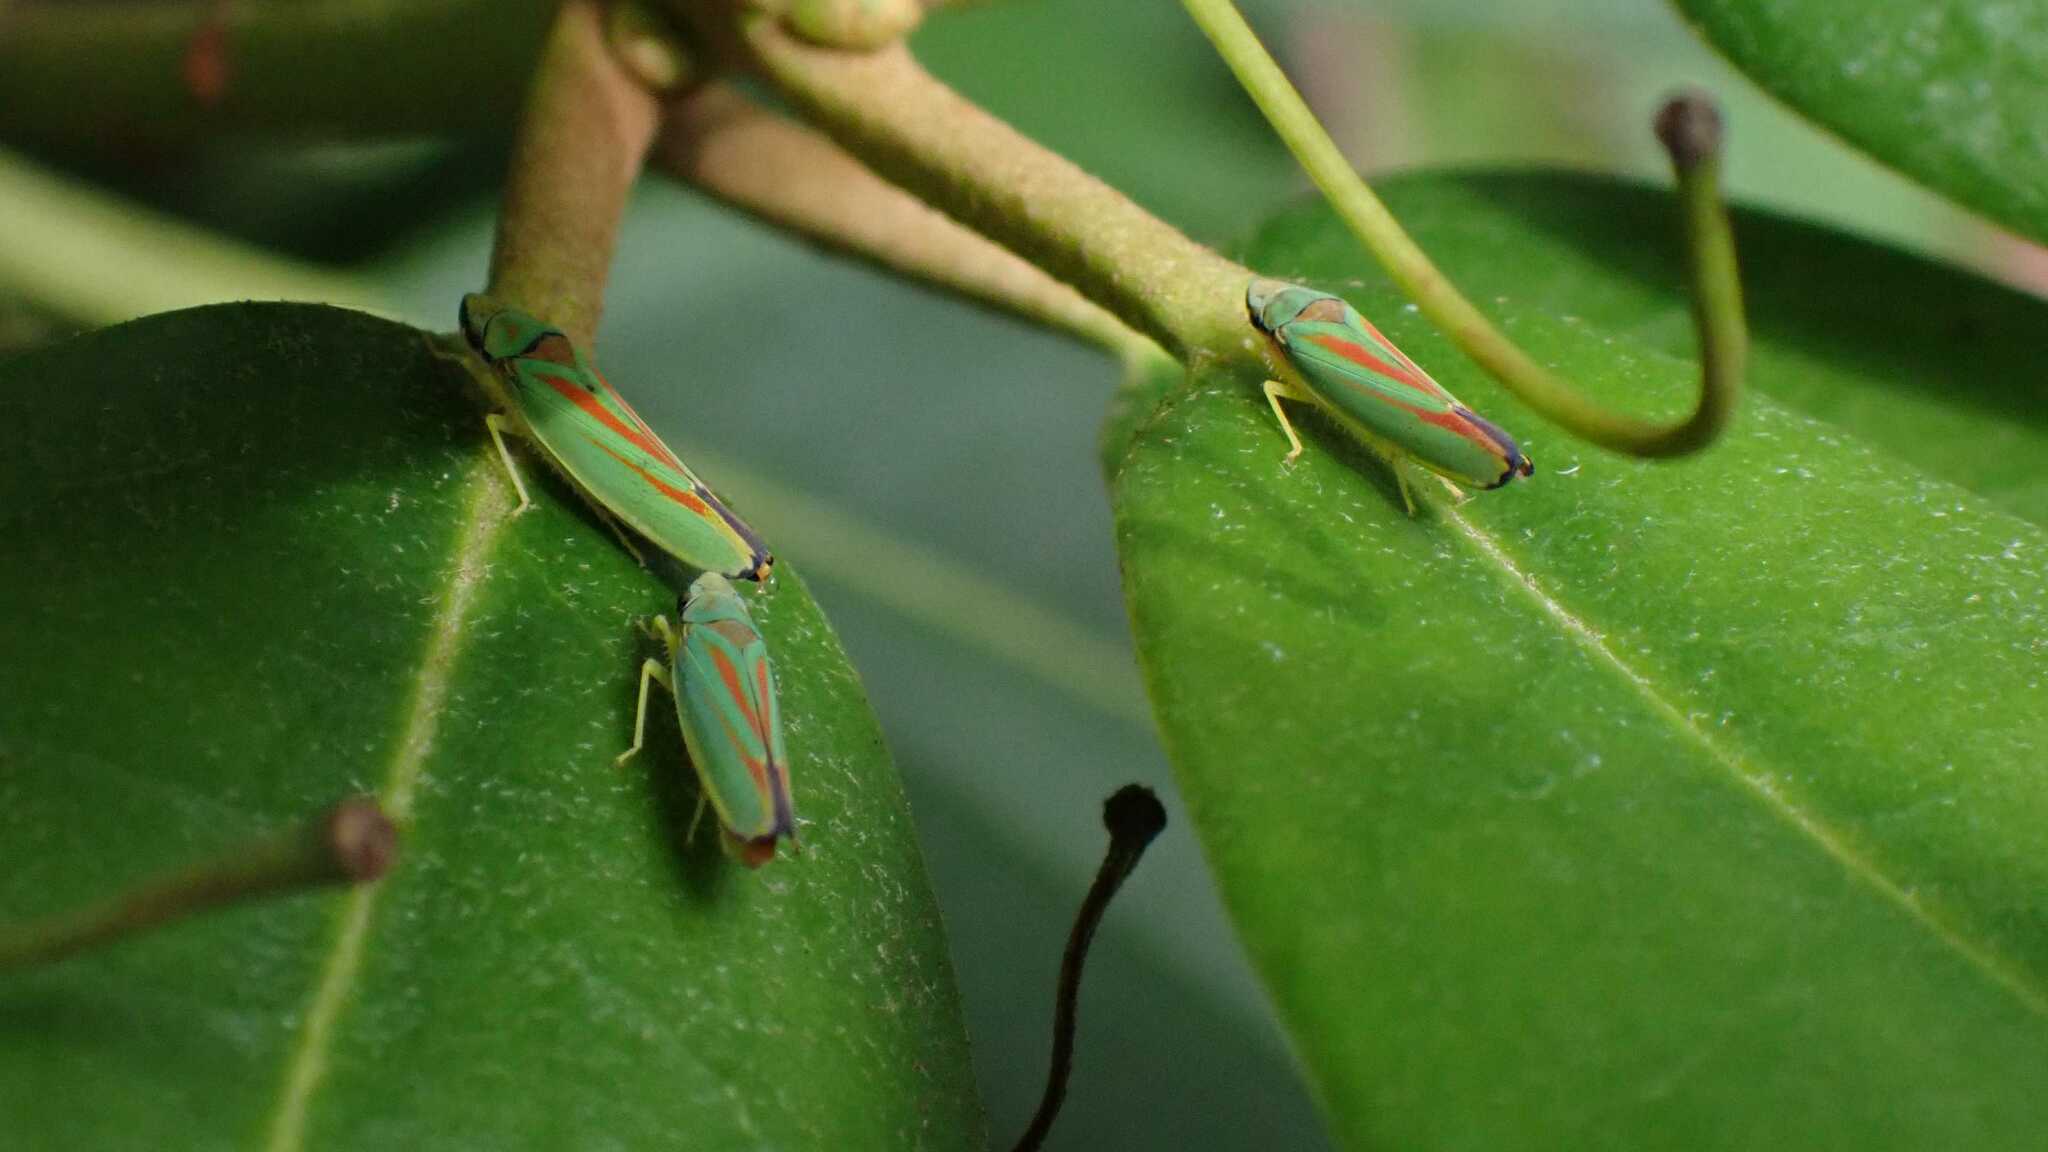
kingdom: Animalia
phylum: Arthropoda
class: Insecta
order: Hemiptera
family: Cicadellidae
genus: Graphocephala
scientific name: Graphocephala fennahi
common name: Rhododendron leafhopper
